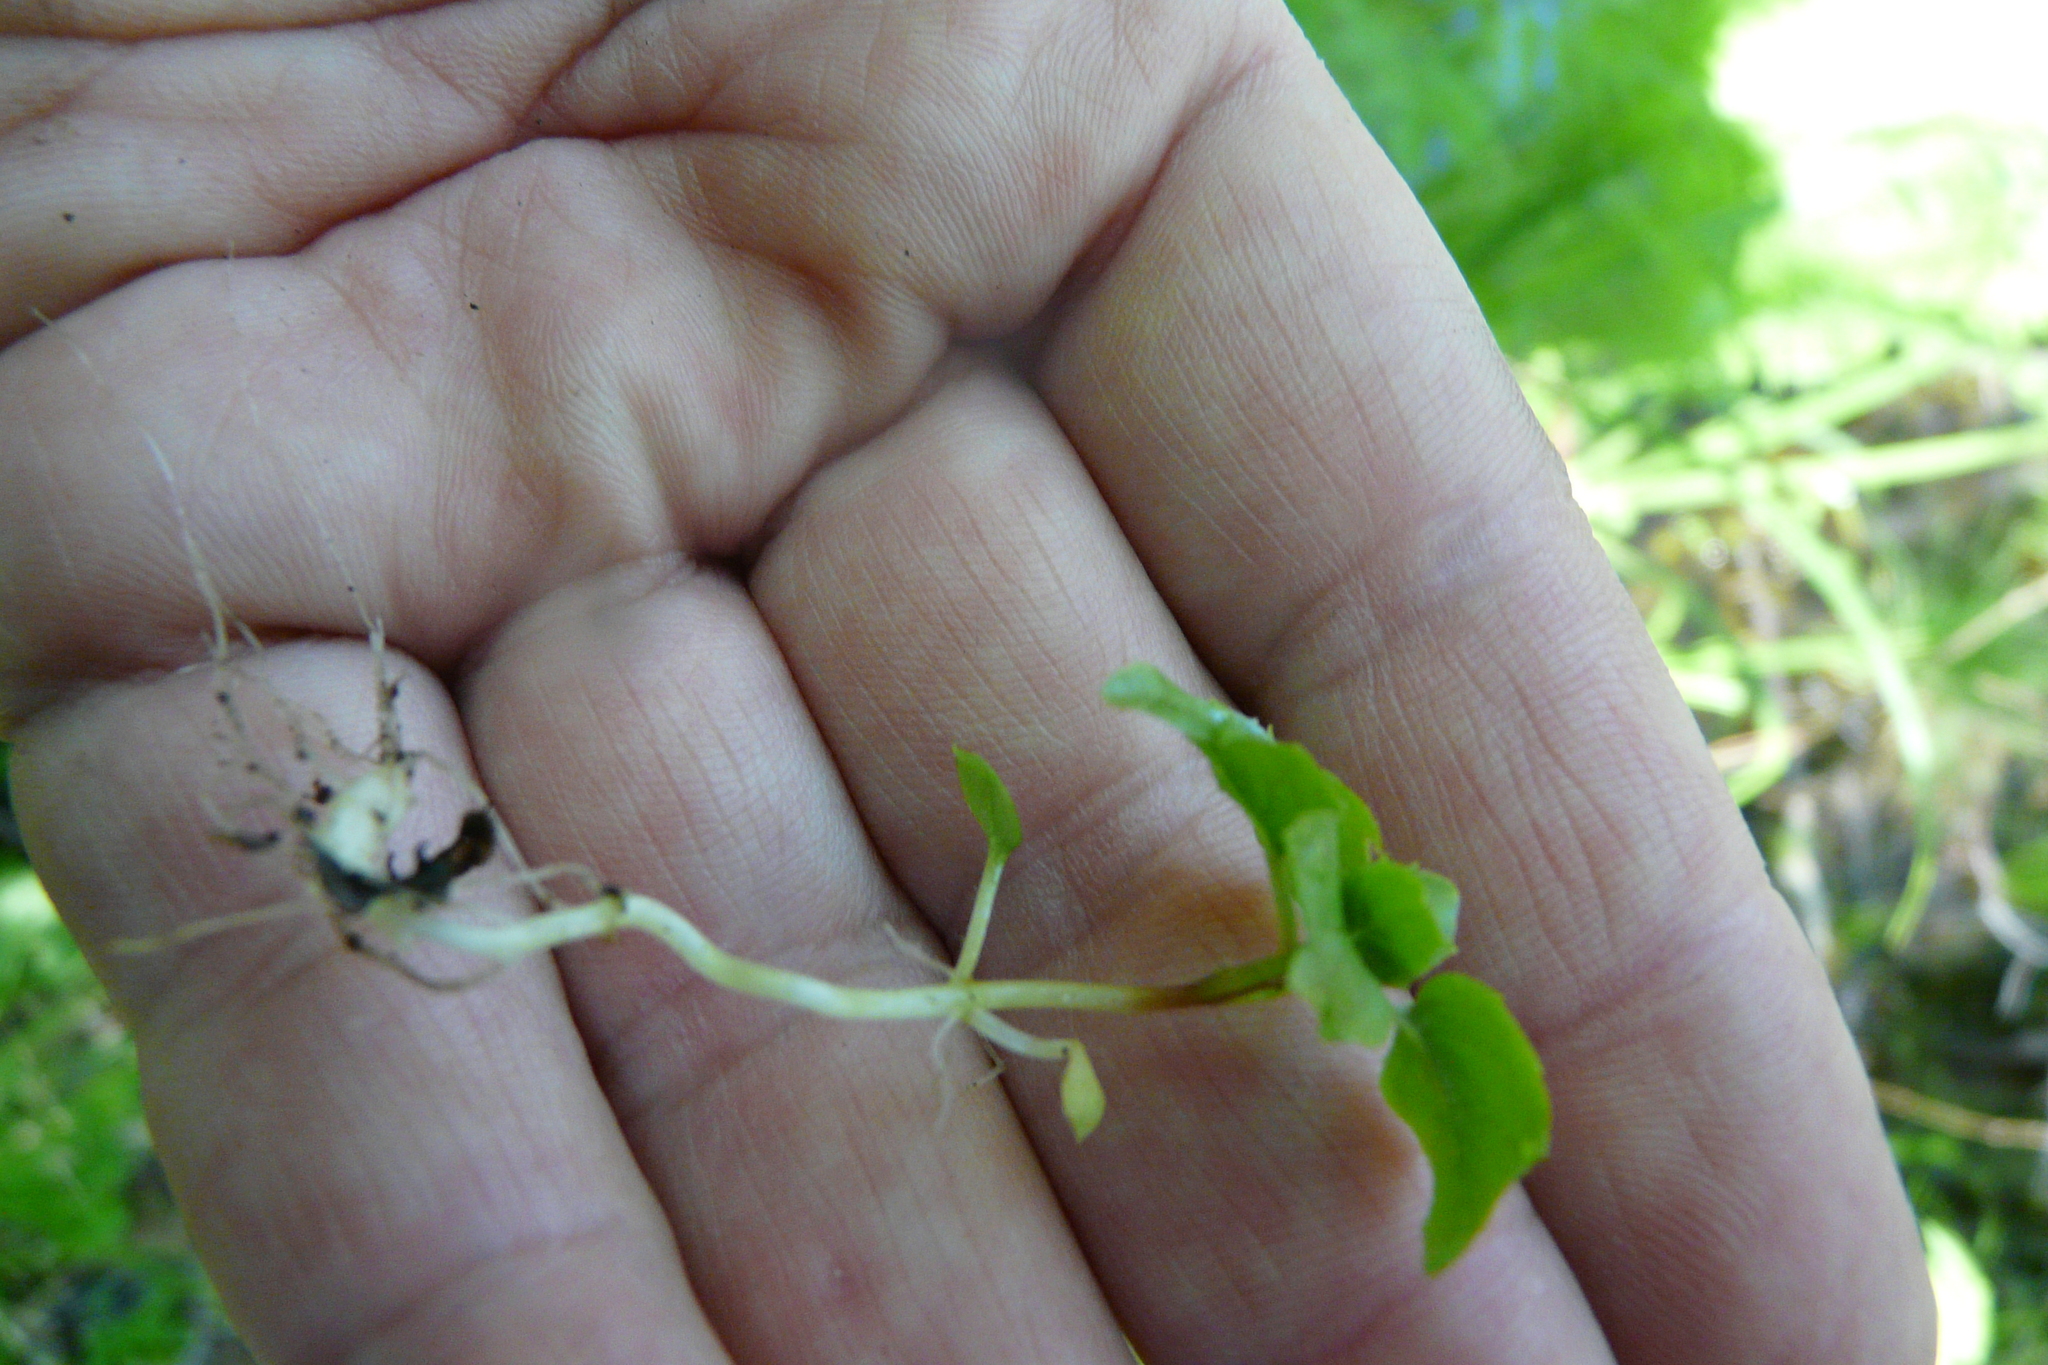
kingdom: Plantae
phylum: Tracheophyta
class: Magnoliopsida
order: Myrtales
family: Onagraceae
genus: Circaea
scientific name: Circaea alpina
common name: Alpine enchanter's-nightshade
